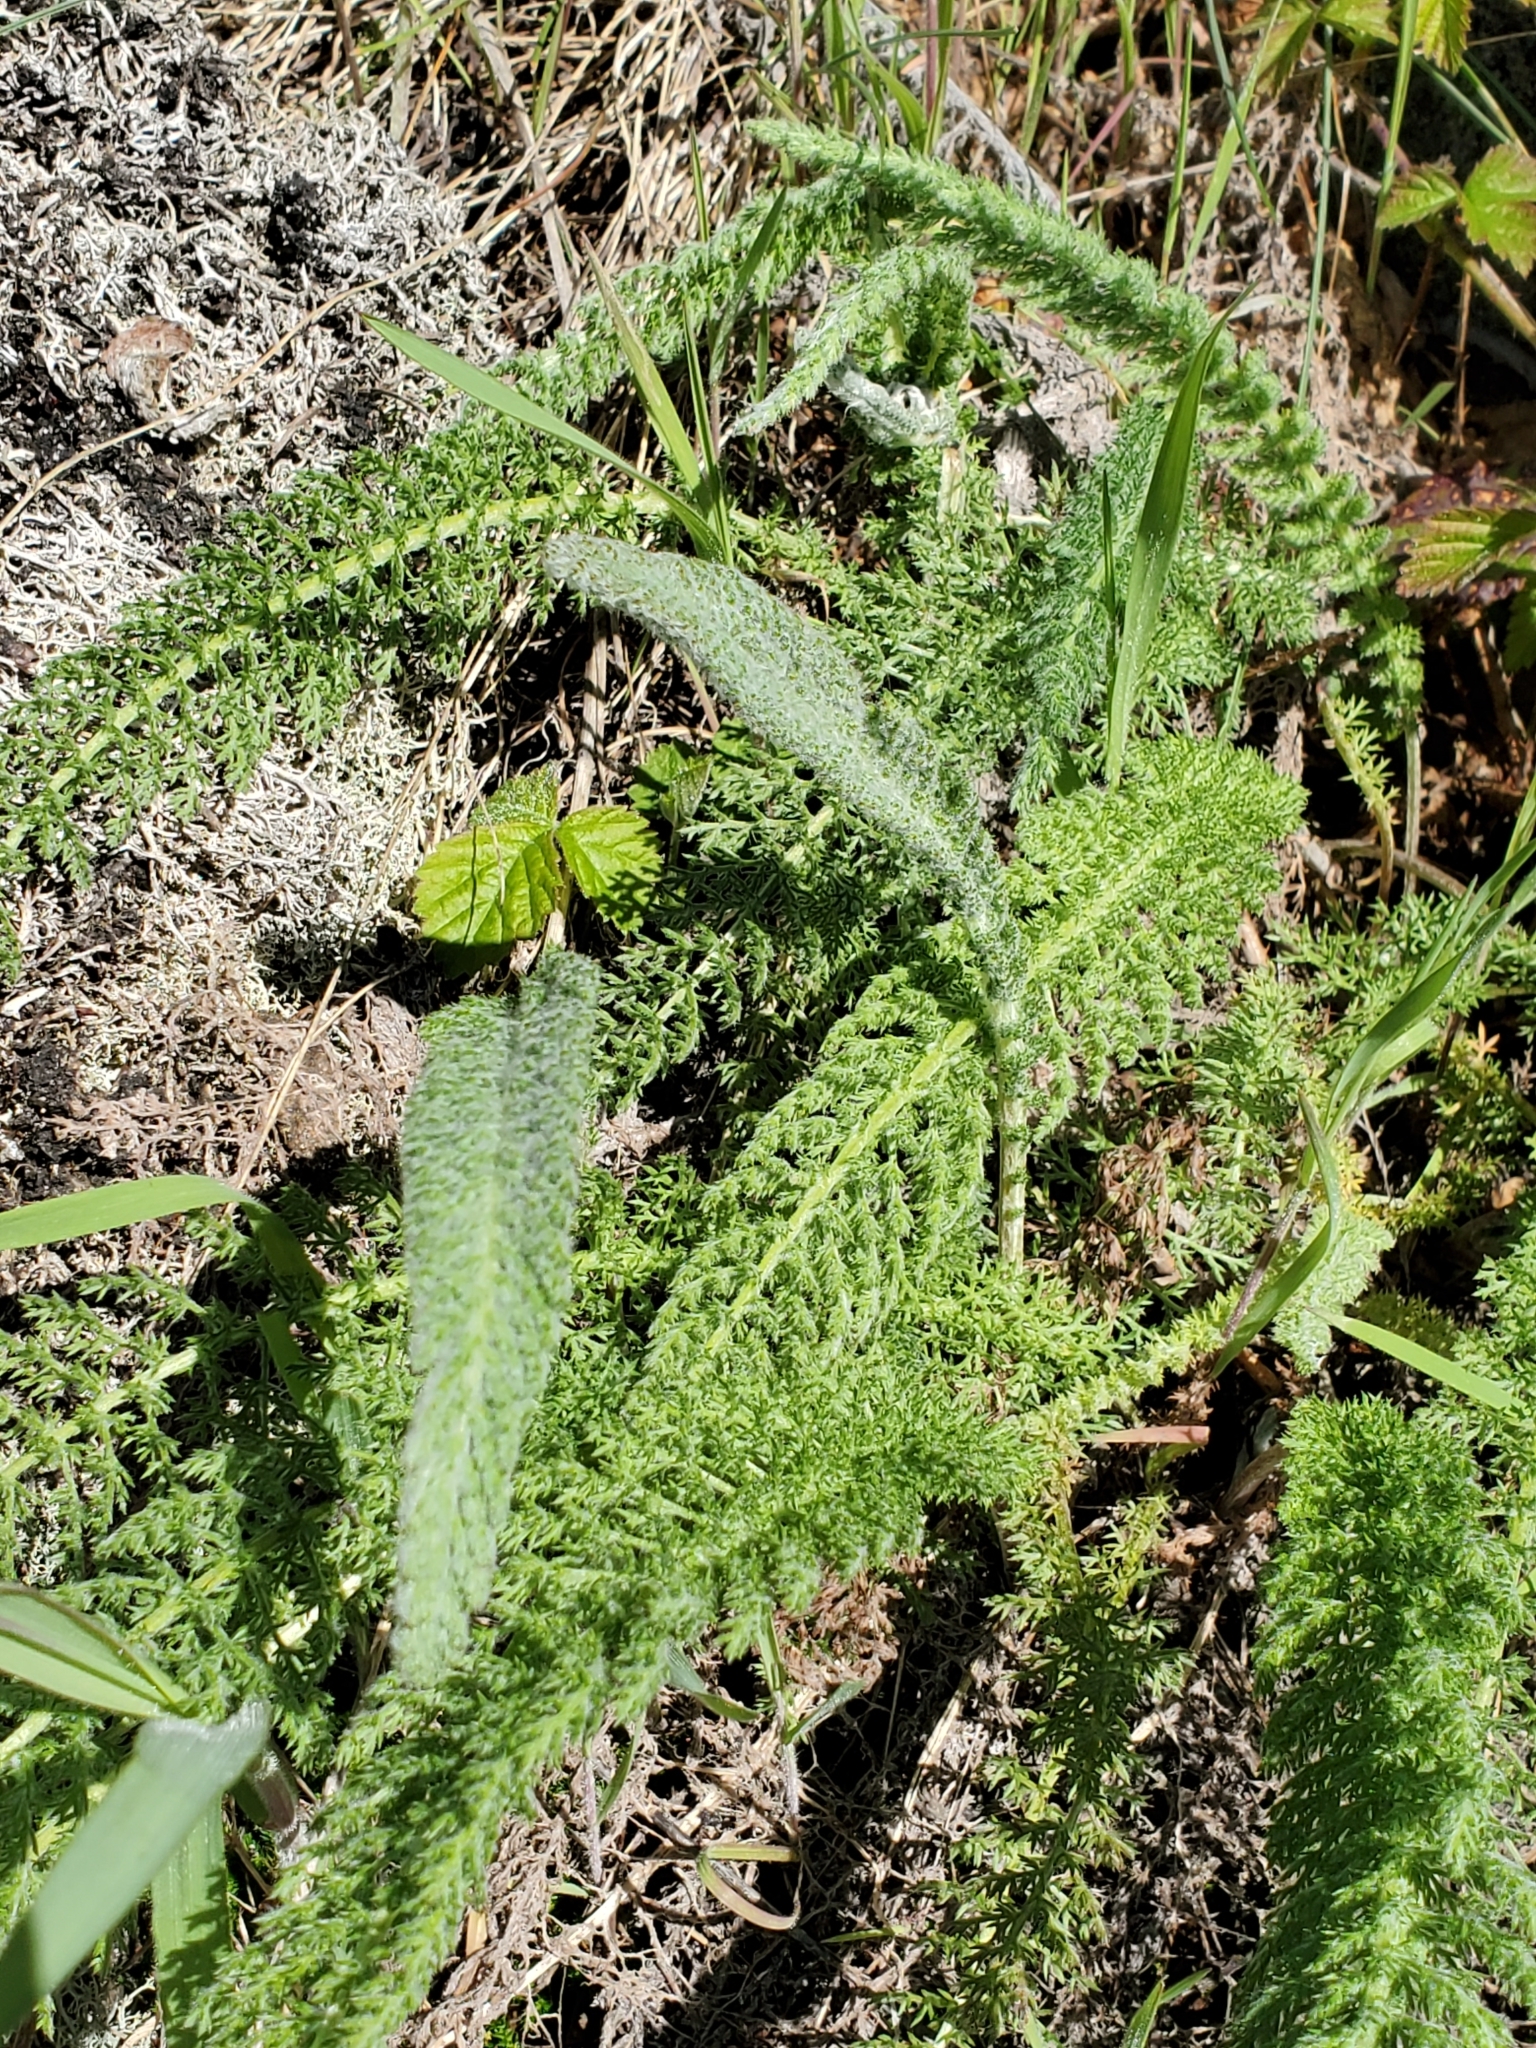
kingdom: Plantae
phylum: Tracheophyta
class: Magnoliopsida
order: Asterales
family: Asteraceae
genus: Achillea
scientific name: Achillea millefolium
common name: Yarrow
